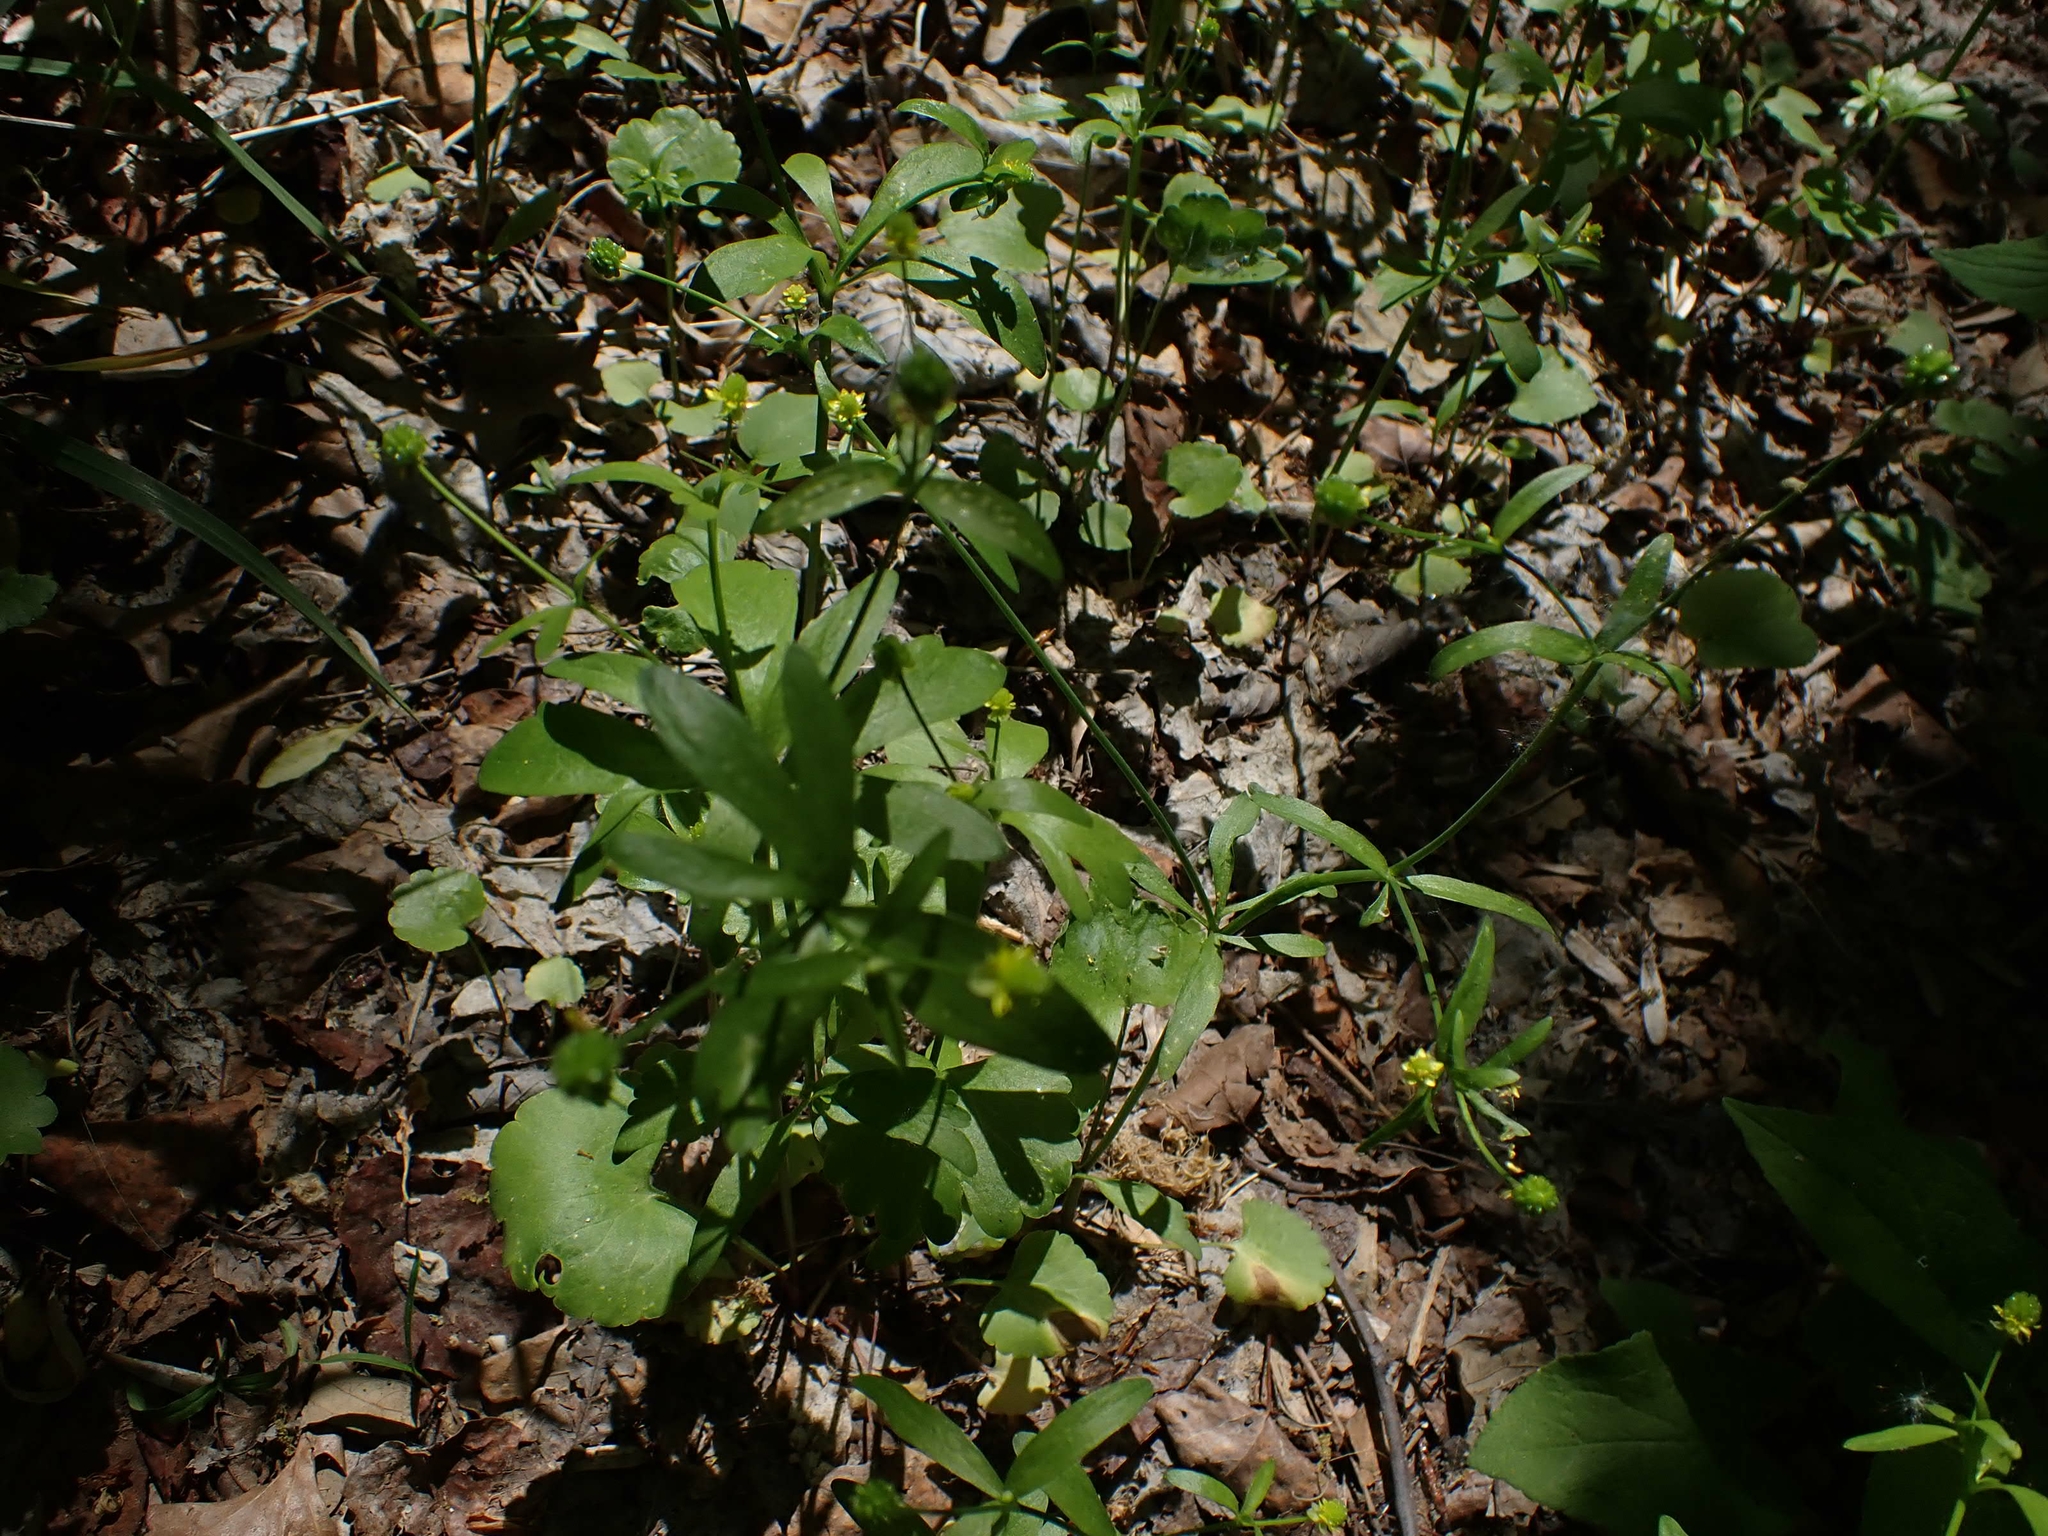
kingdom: Plantae
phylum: Tracheophyta
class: Magnoliopsida
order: Ranunculales
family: Ranunculaceae
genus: Ranunculus
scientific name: Ranunculus abortivus
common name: Early wood buttercup
